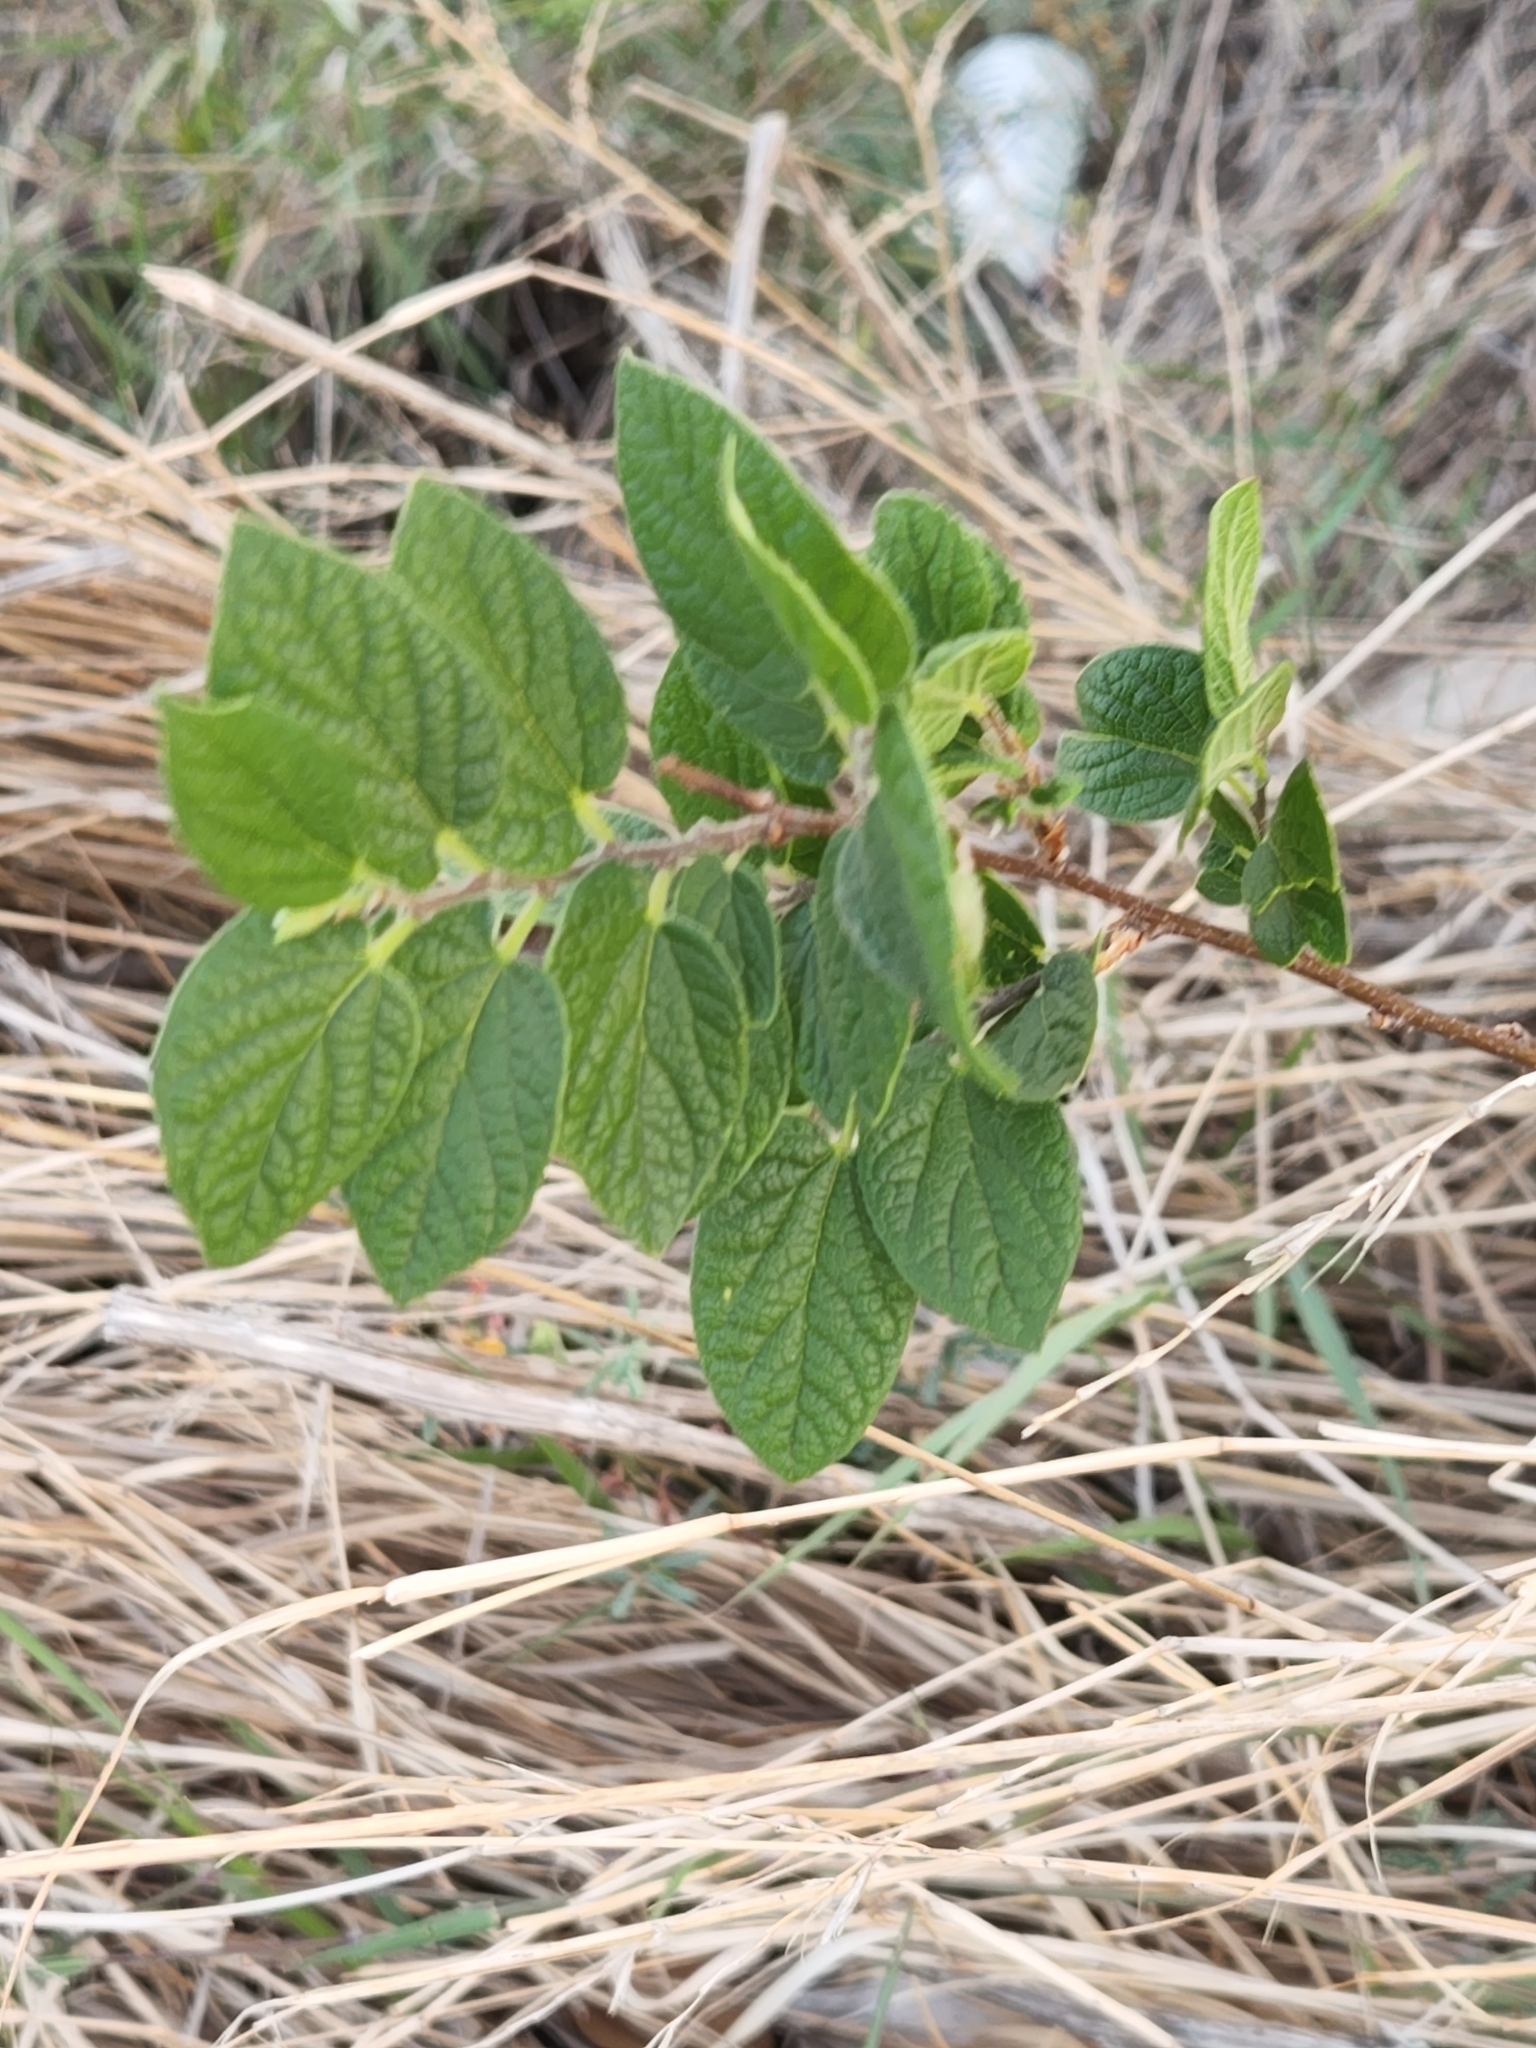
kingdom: Plantae
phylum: Tracheophyta
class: Magnoliopsida
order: Rosales
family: Cannabaceae
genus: Celtis
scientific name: Celtis reticulata
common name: Netleaf hackberry
